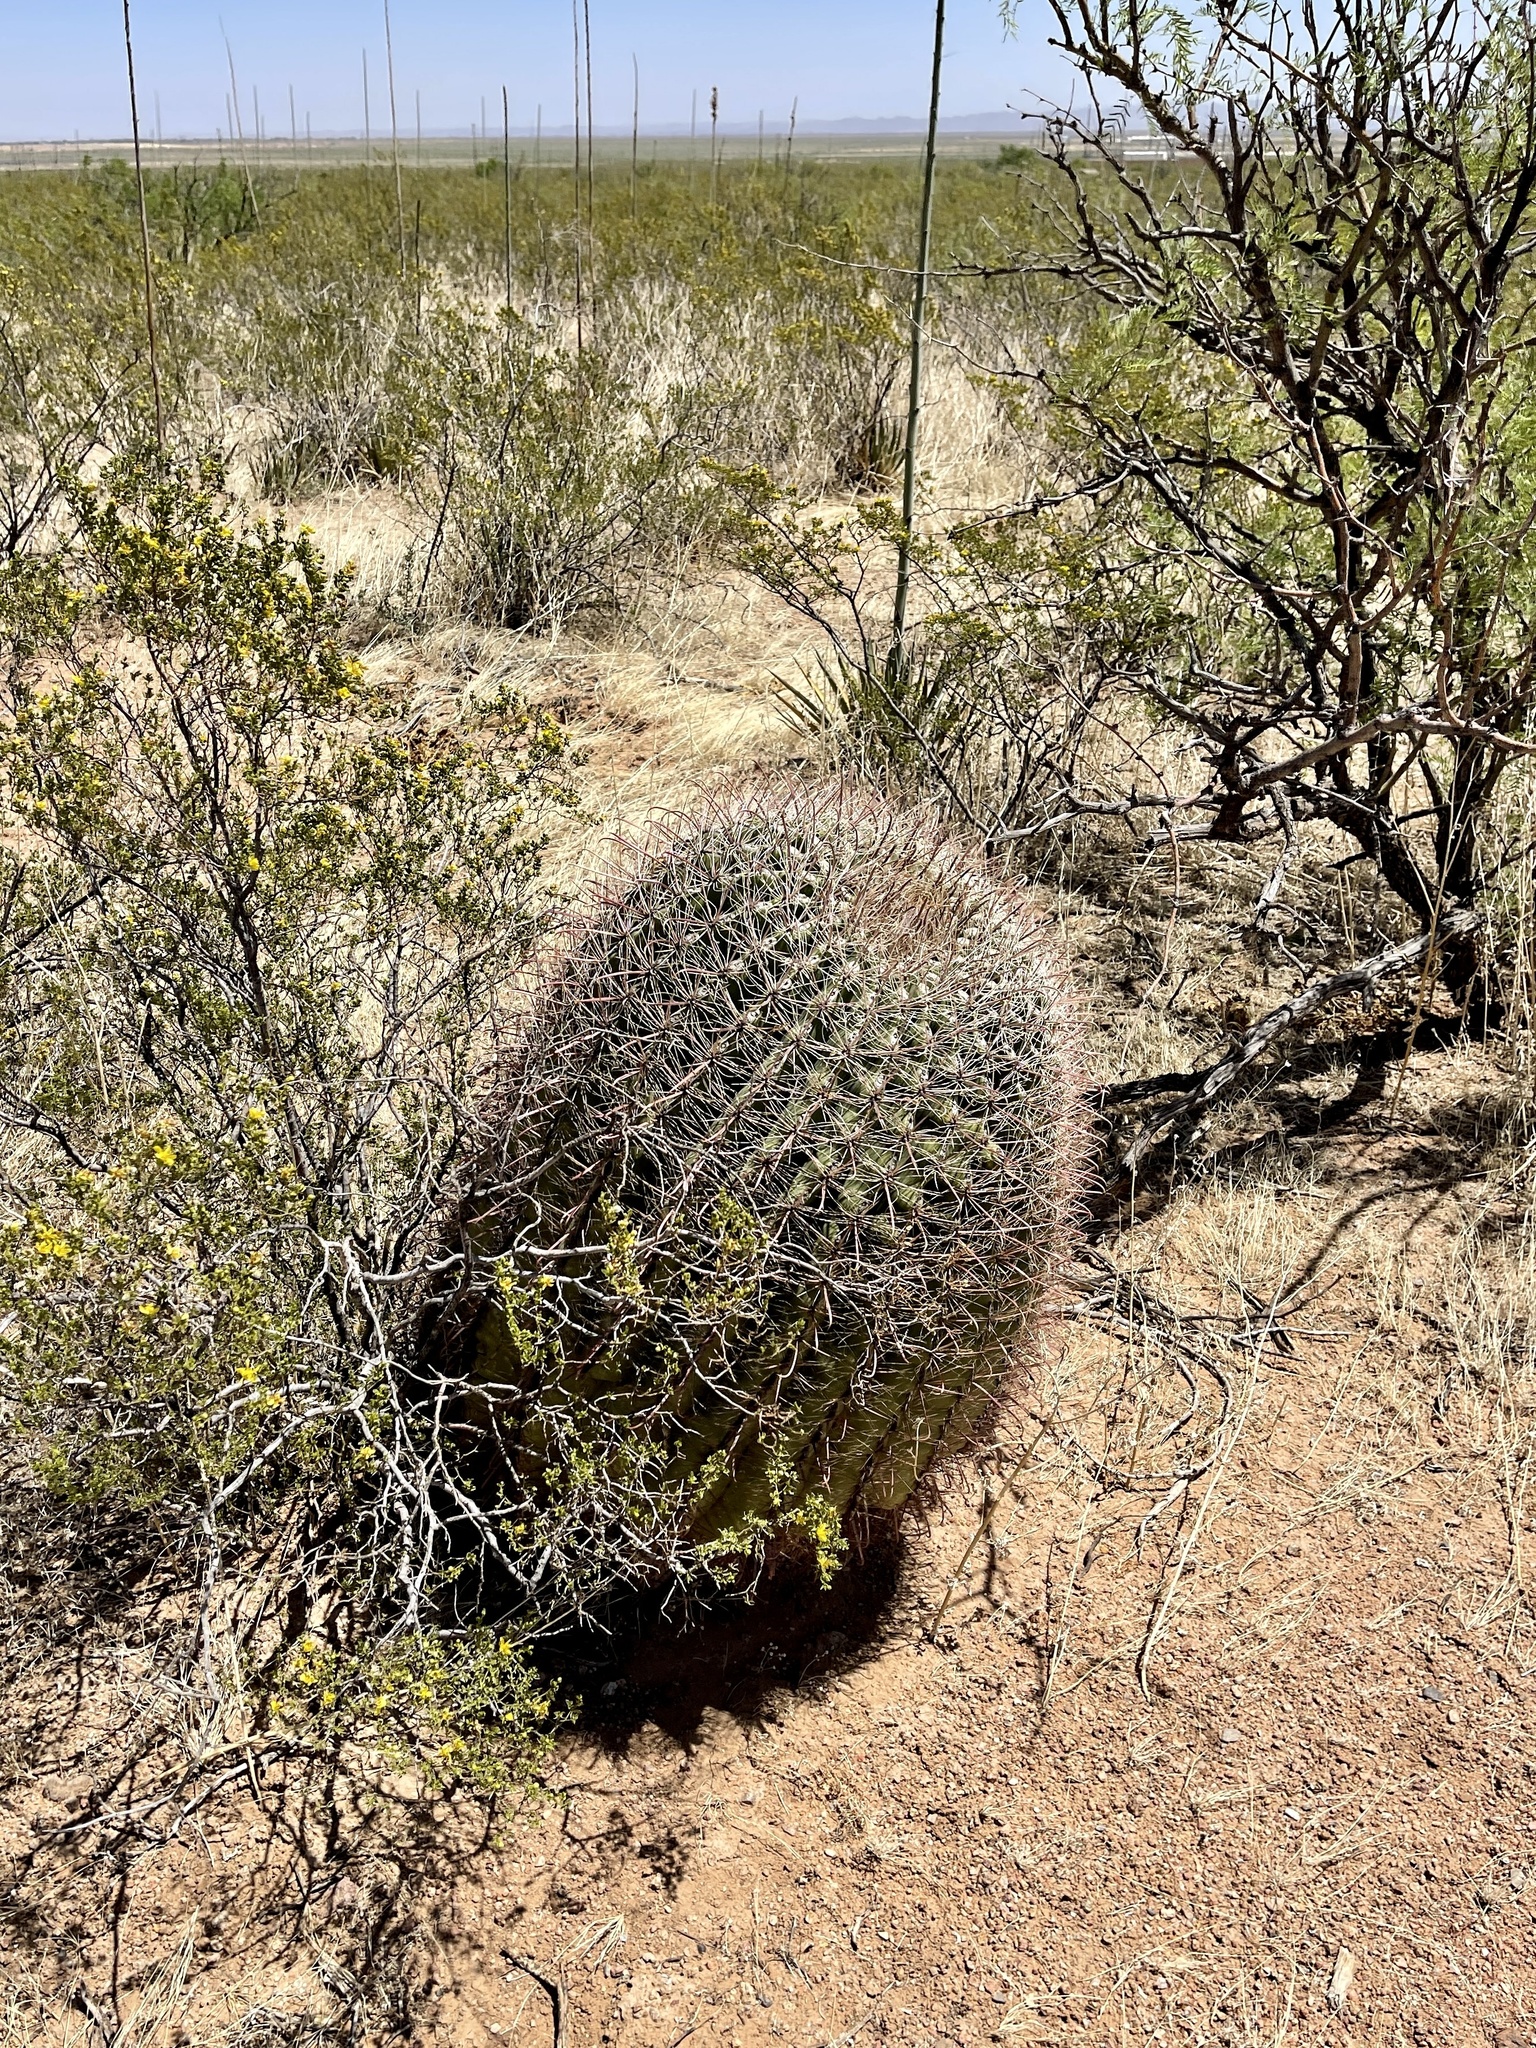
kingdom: Plantae
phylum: Tracheophyta
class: Magnoliopsida
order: Caryophyllales
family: Cactaceae
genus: Ferocactus
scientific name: Ferocactus wislizeni
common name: Candy barrel cactus
